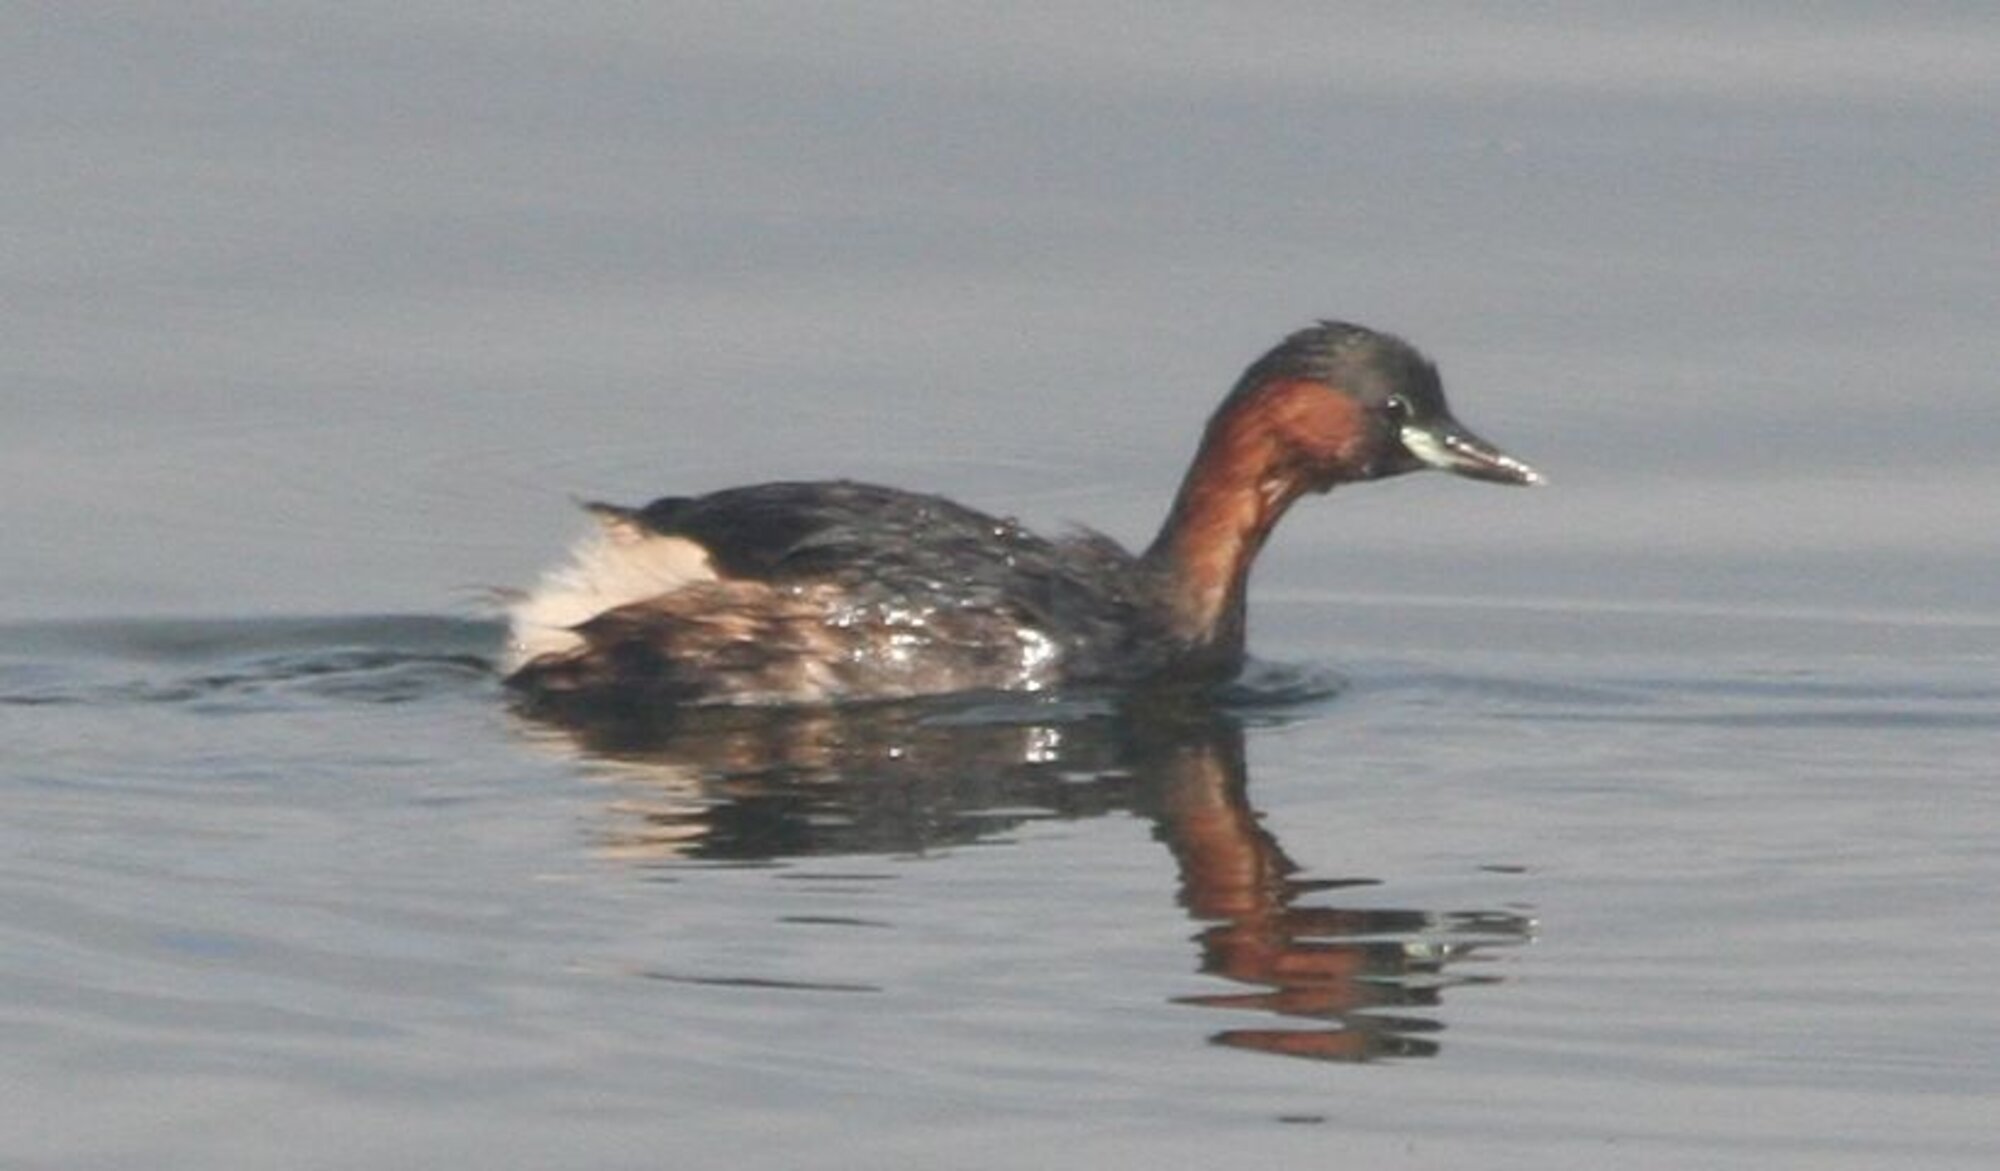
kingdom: Animalia
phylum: Chordata
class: Aves
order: Podicipediformes
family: Podicipedidae
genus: Tachybaptus
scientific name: Tachybaptus ruficollis
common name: Little grebe
